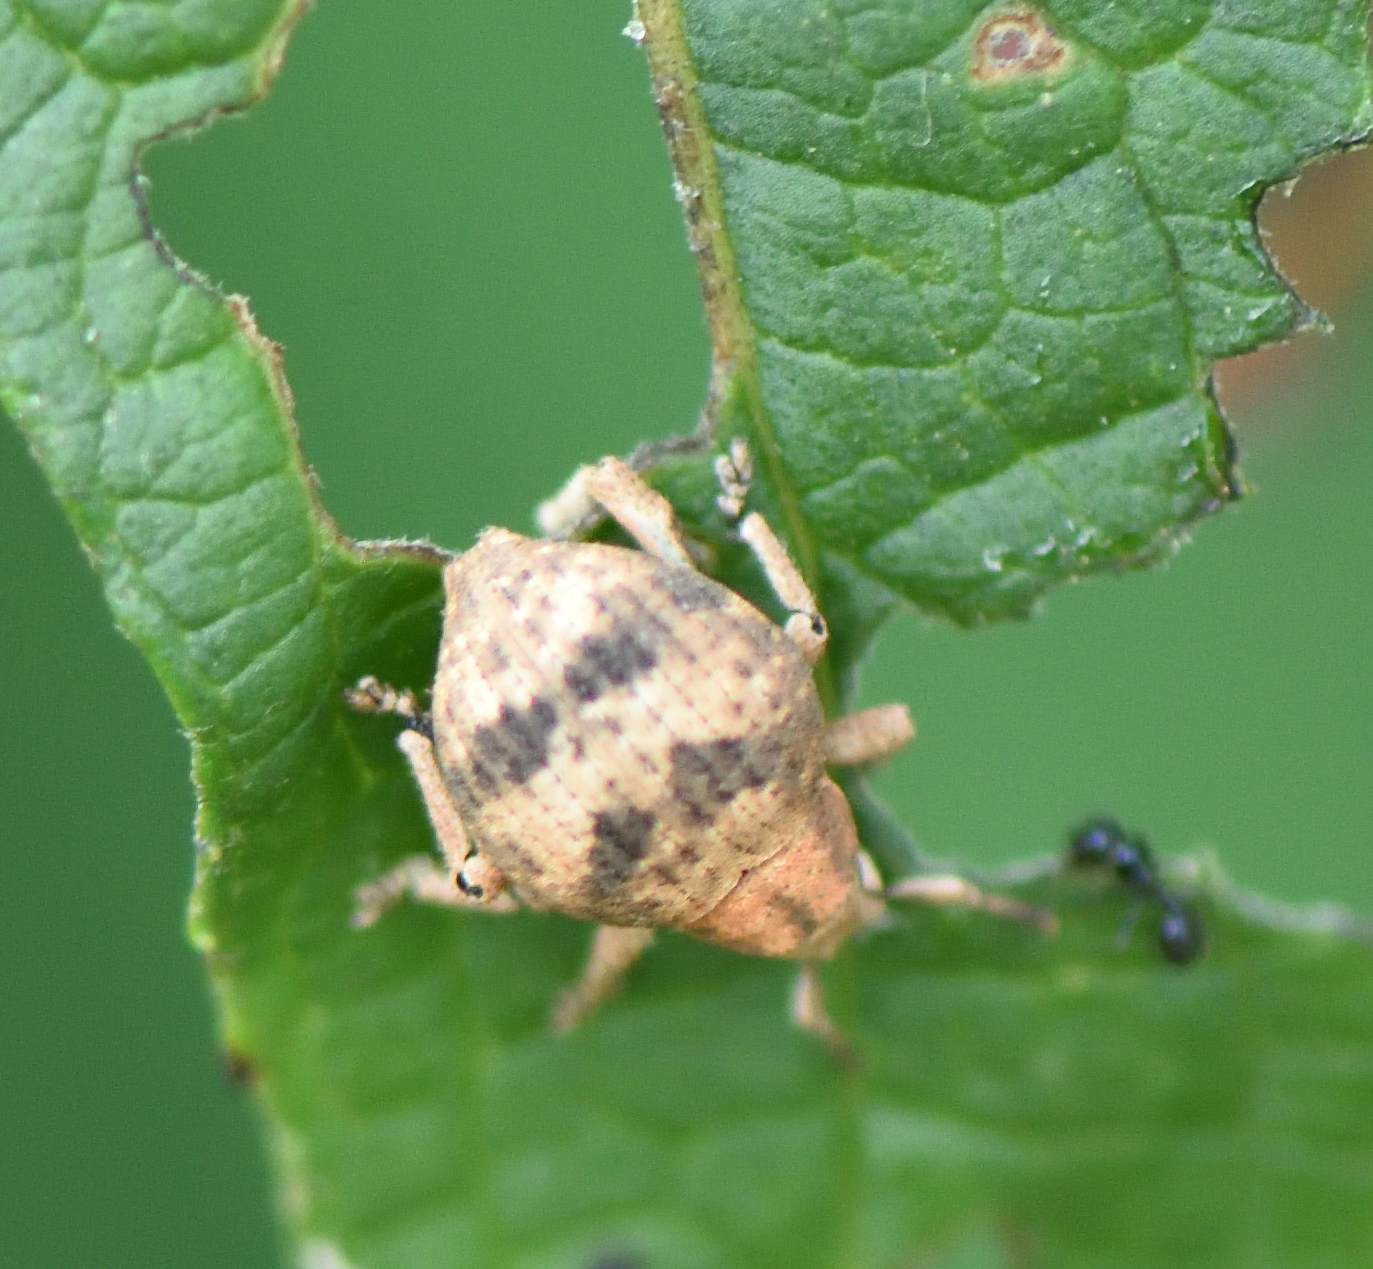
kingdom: Animalia
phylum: Arthropoda
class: Insecta
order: Coleoptera
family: Curculionidae
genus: Pseudocneorhinus
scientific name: Pseudocneorhinus bifasciatus
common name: Two-banded japanese weevil
